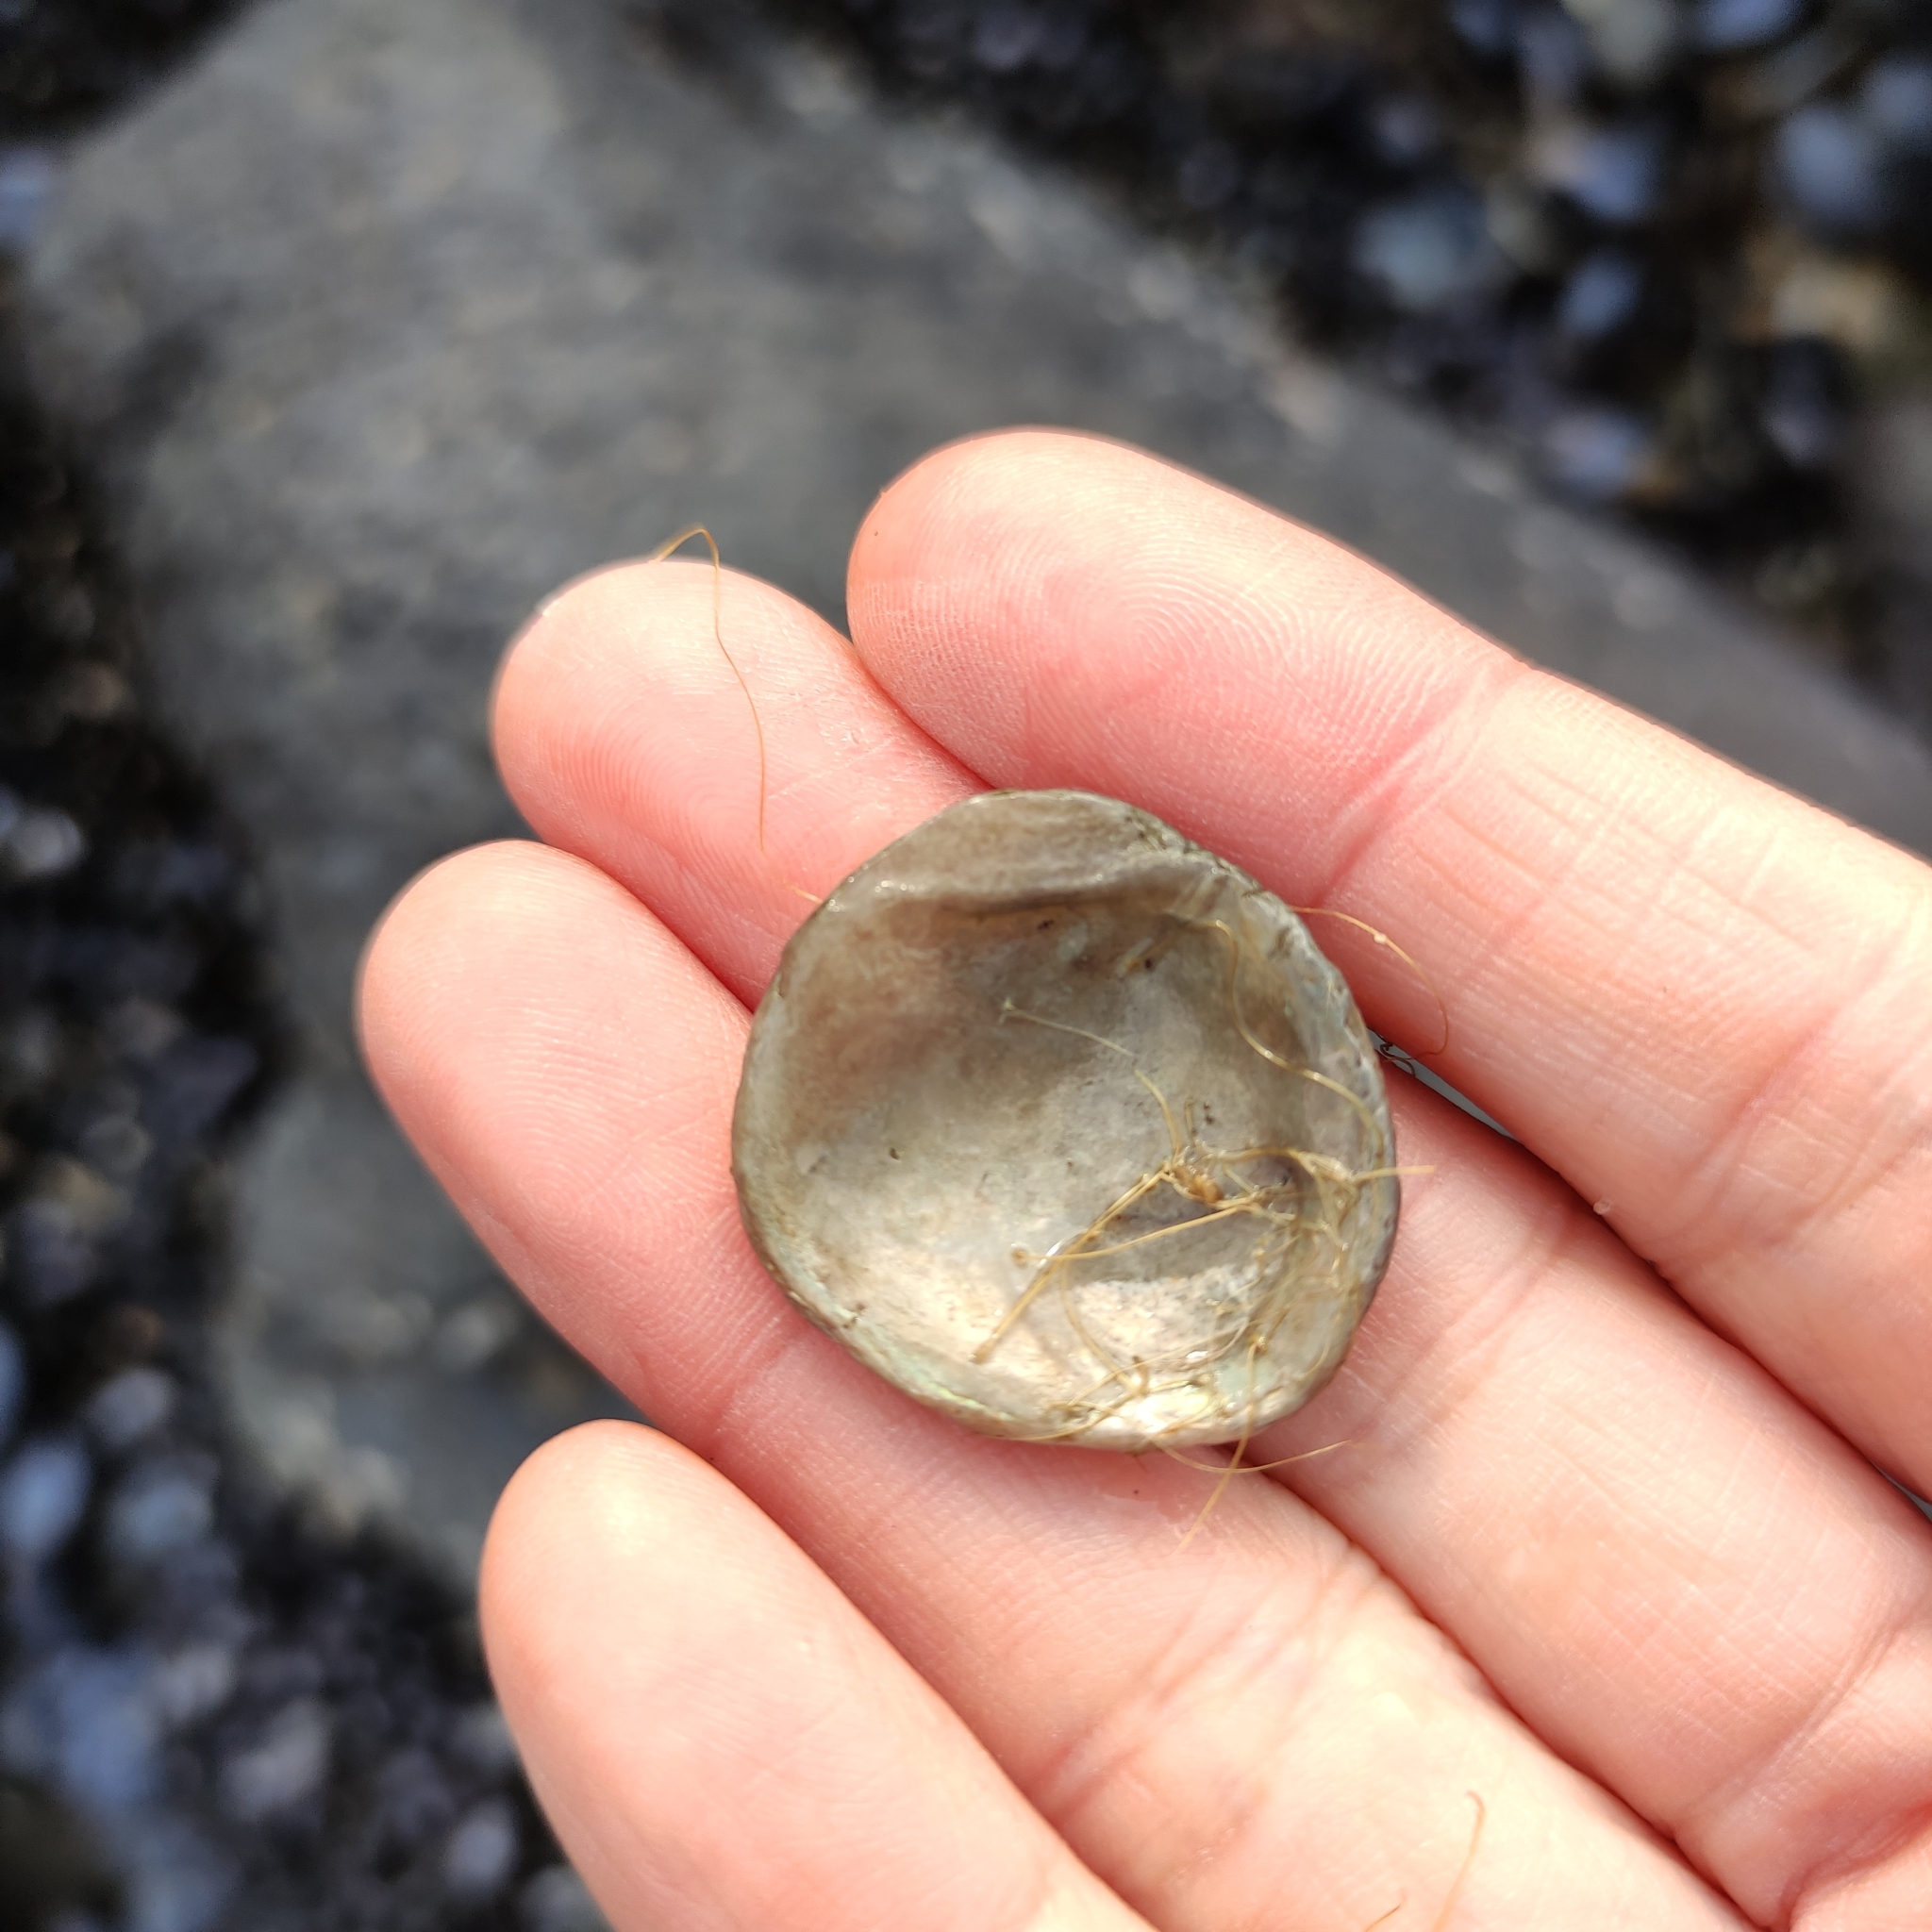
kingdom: Animalia
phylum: Mollusca
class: Bivalvia
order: Ostreida
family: Ostreidae
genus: Ostrea
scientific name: Ostrea chilensis
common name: Chilean oyster
